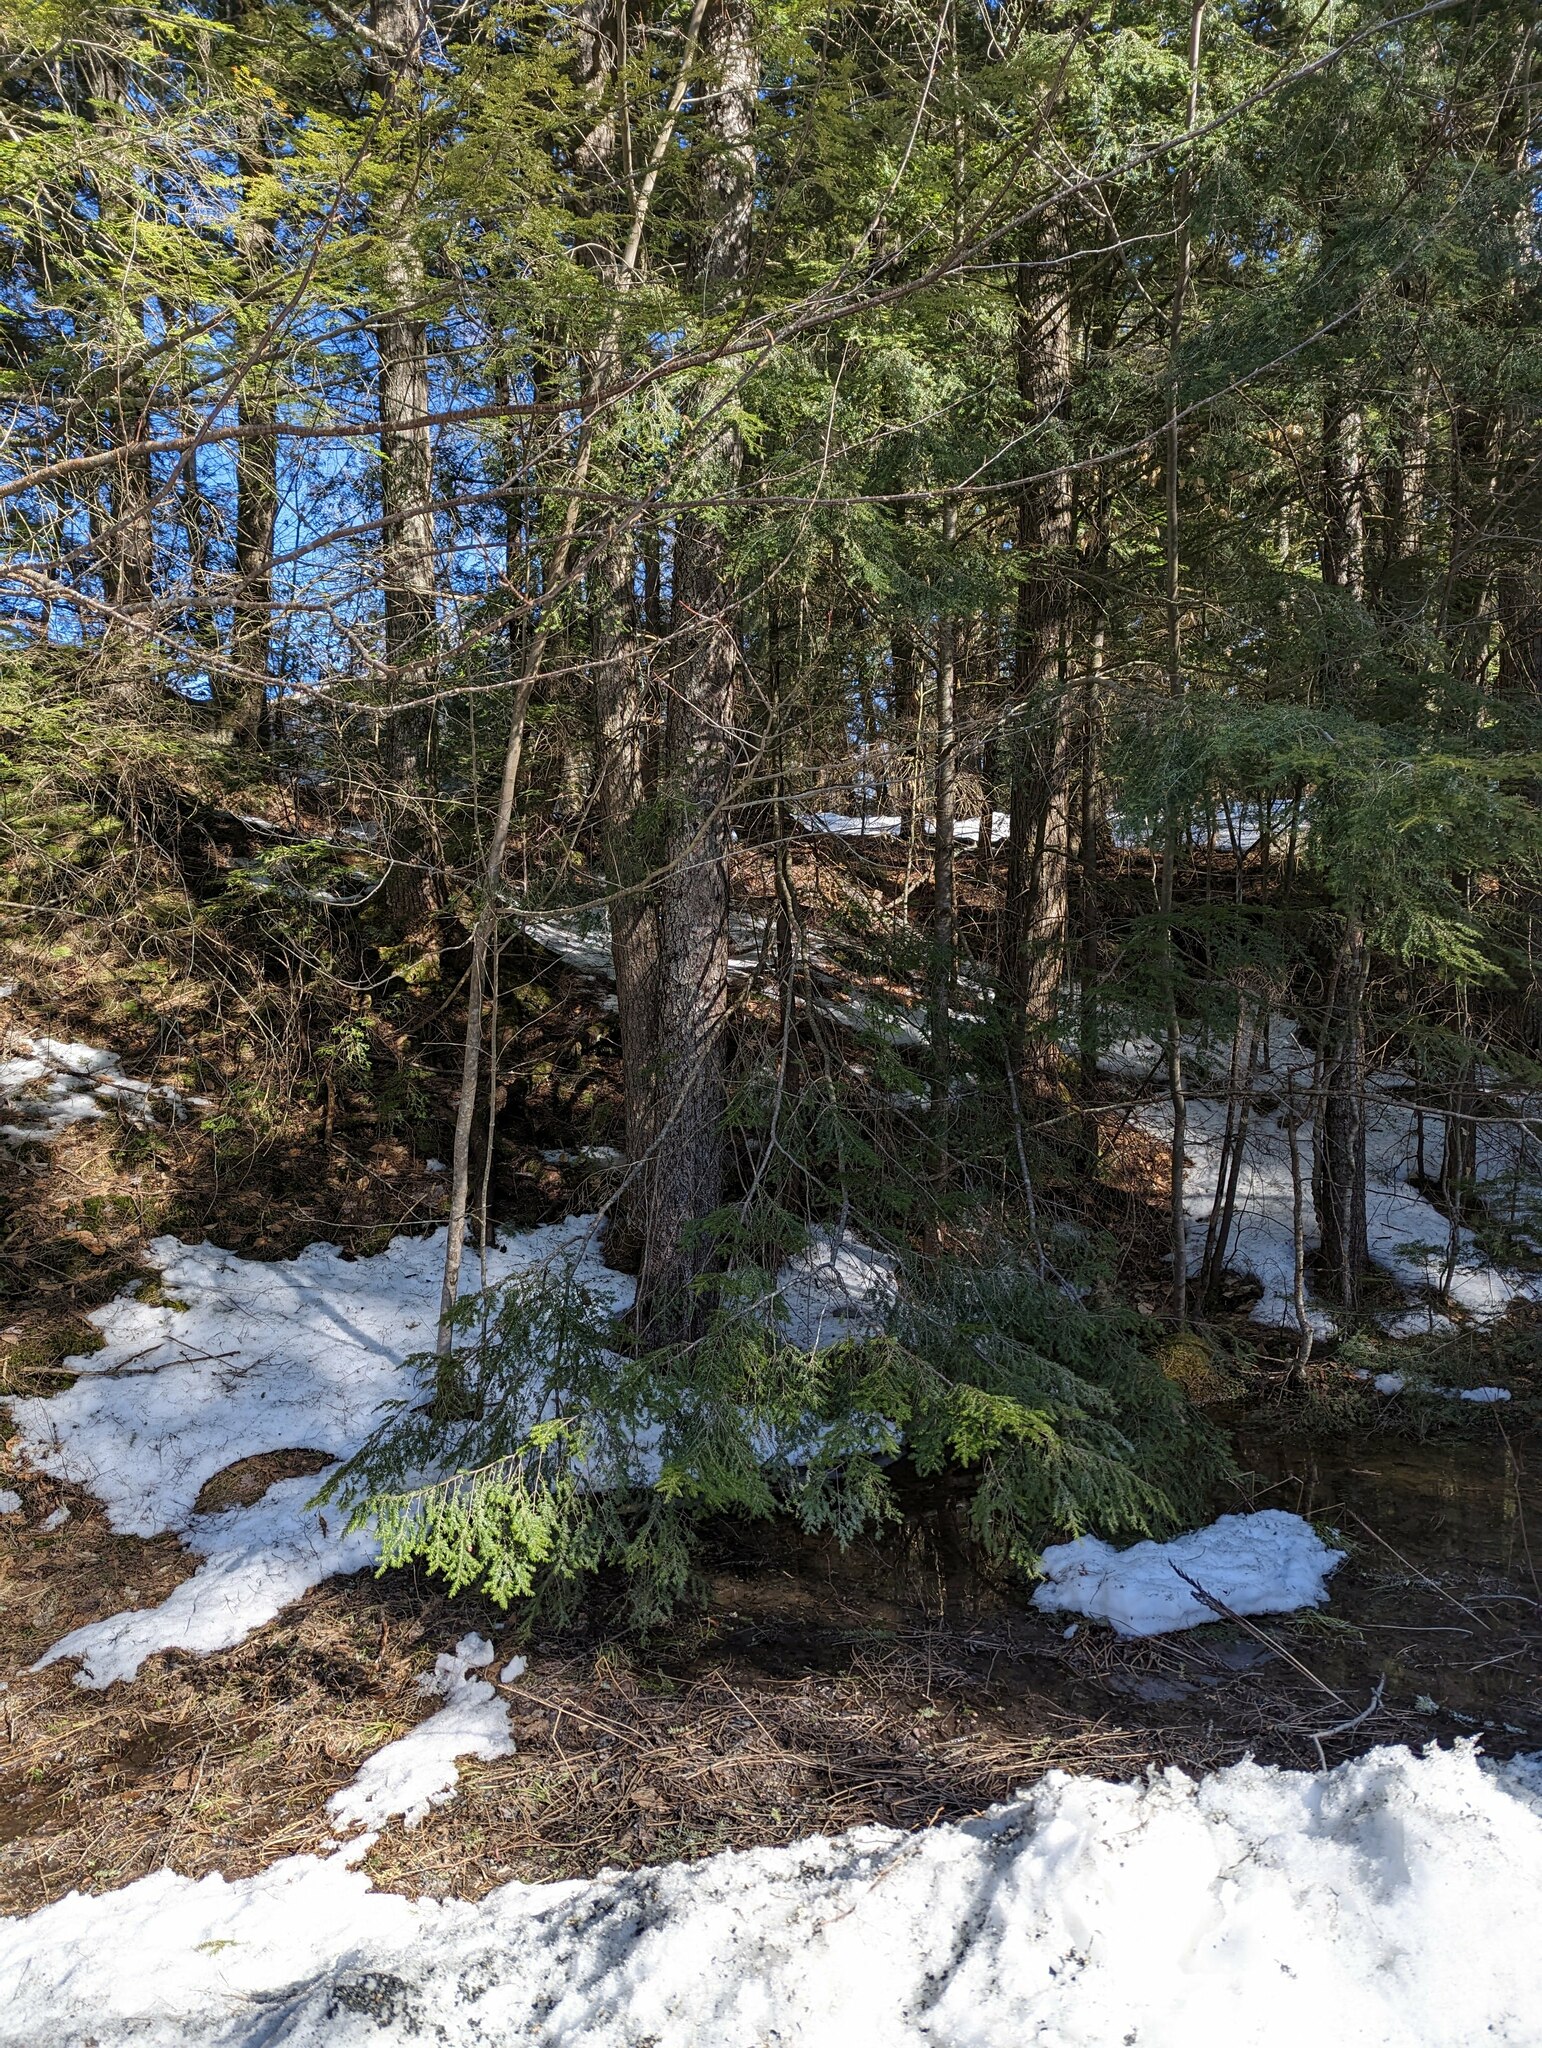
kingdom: Plantae
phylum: Tracheophyta
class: Pinopsida
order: Pinales
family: Pinaceae
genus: Tsuga
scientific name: Tsuga canadensis
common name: Eastern hemlock
